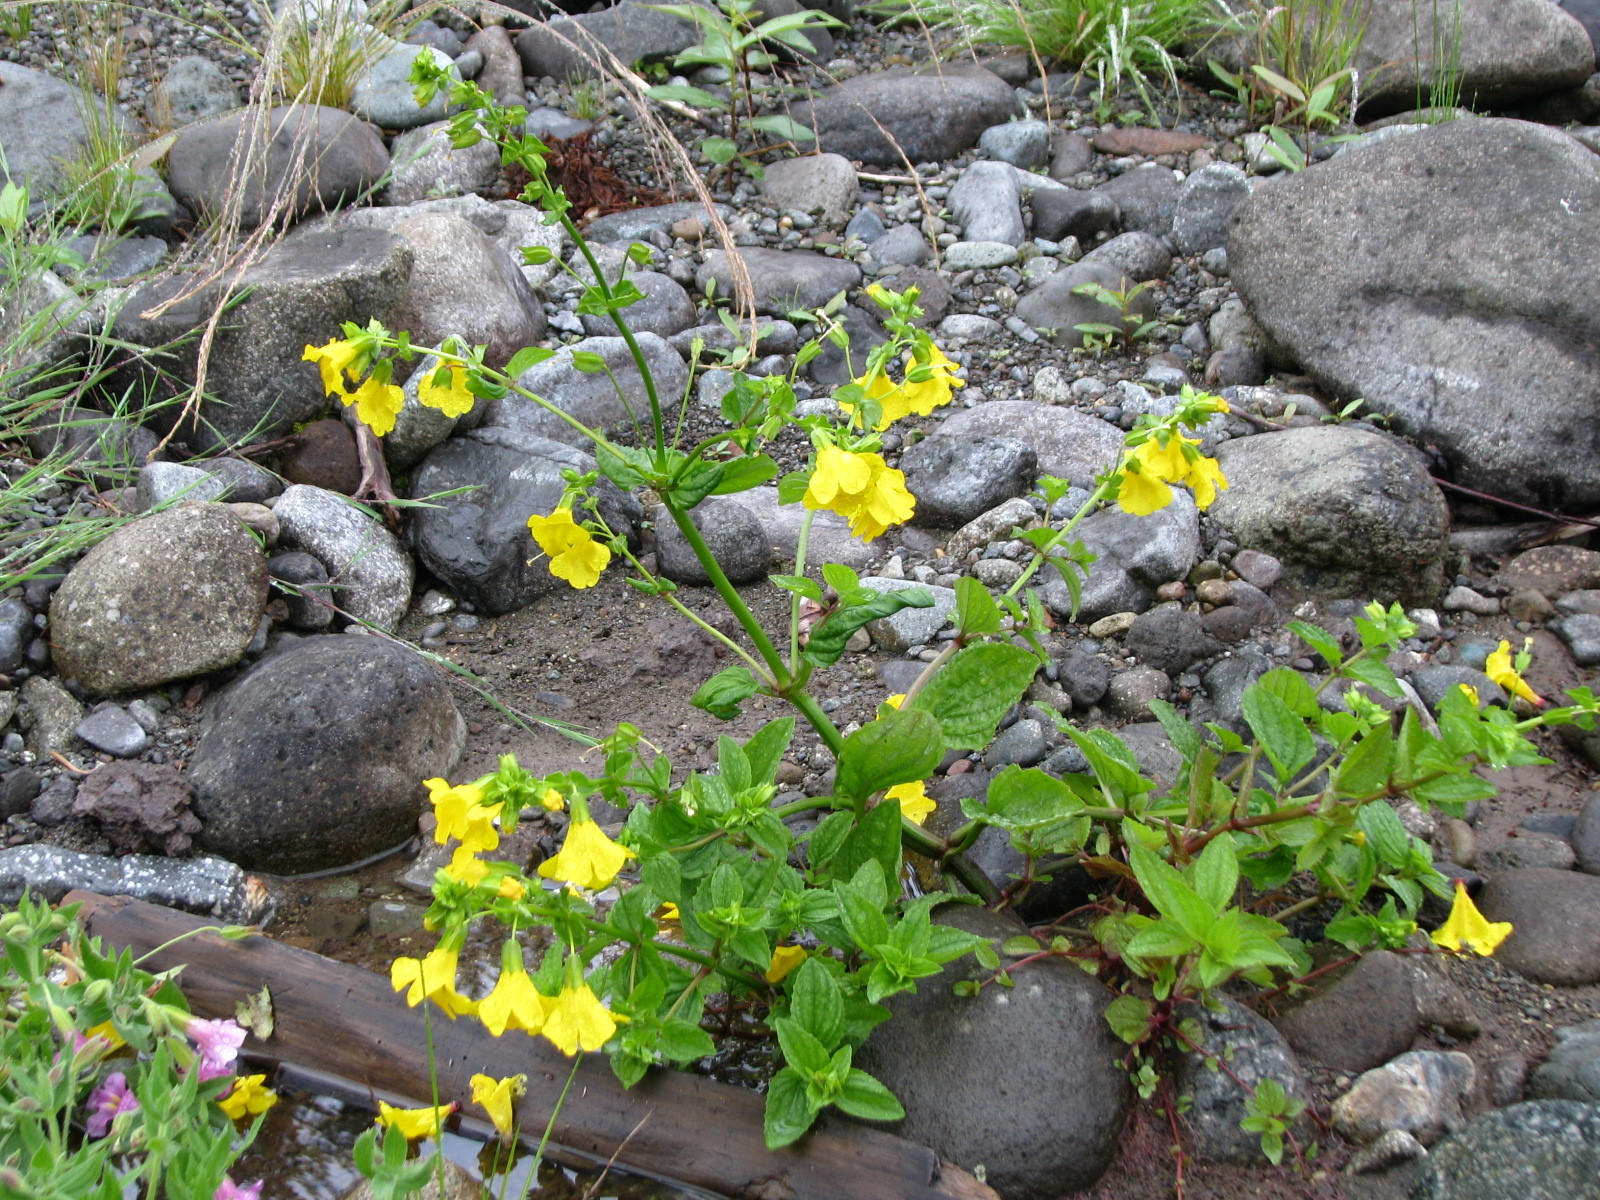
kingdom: Plantae
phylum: Tracheophyta
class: Magnoliopsida
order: Lamiales
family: Phrymaceae
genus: Erythranthe
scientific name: Erythranthe decora
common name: Mannered monkeyflower
